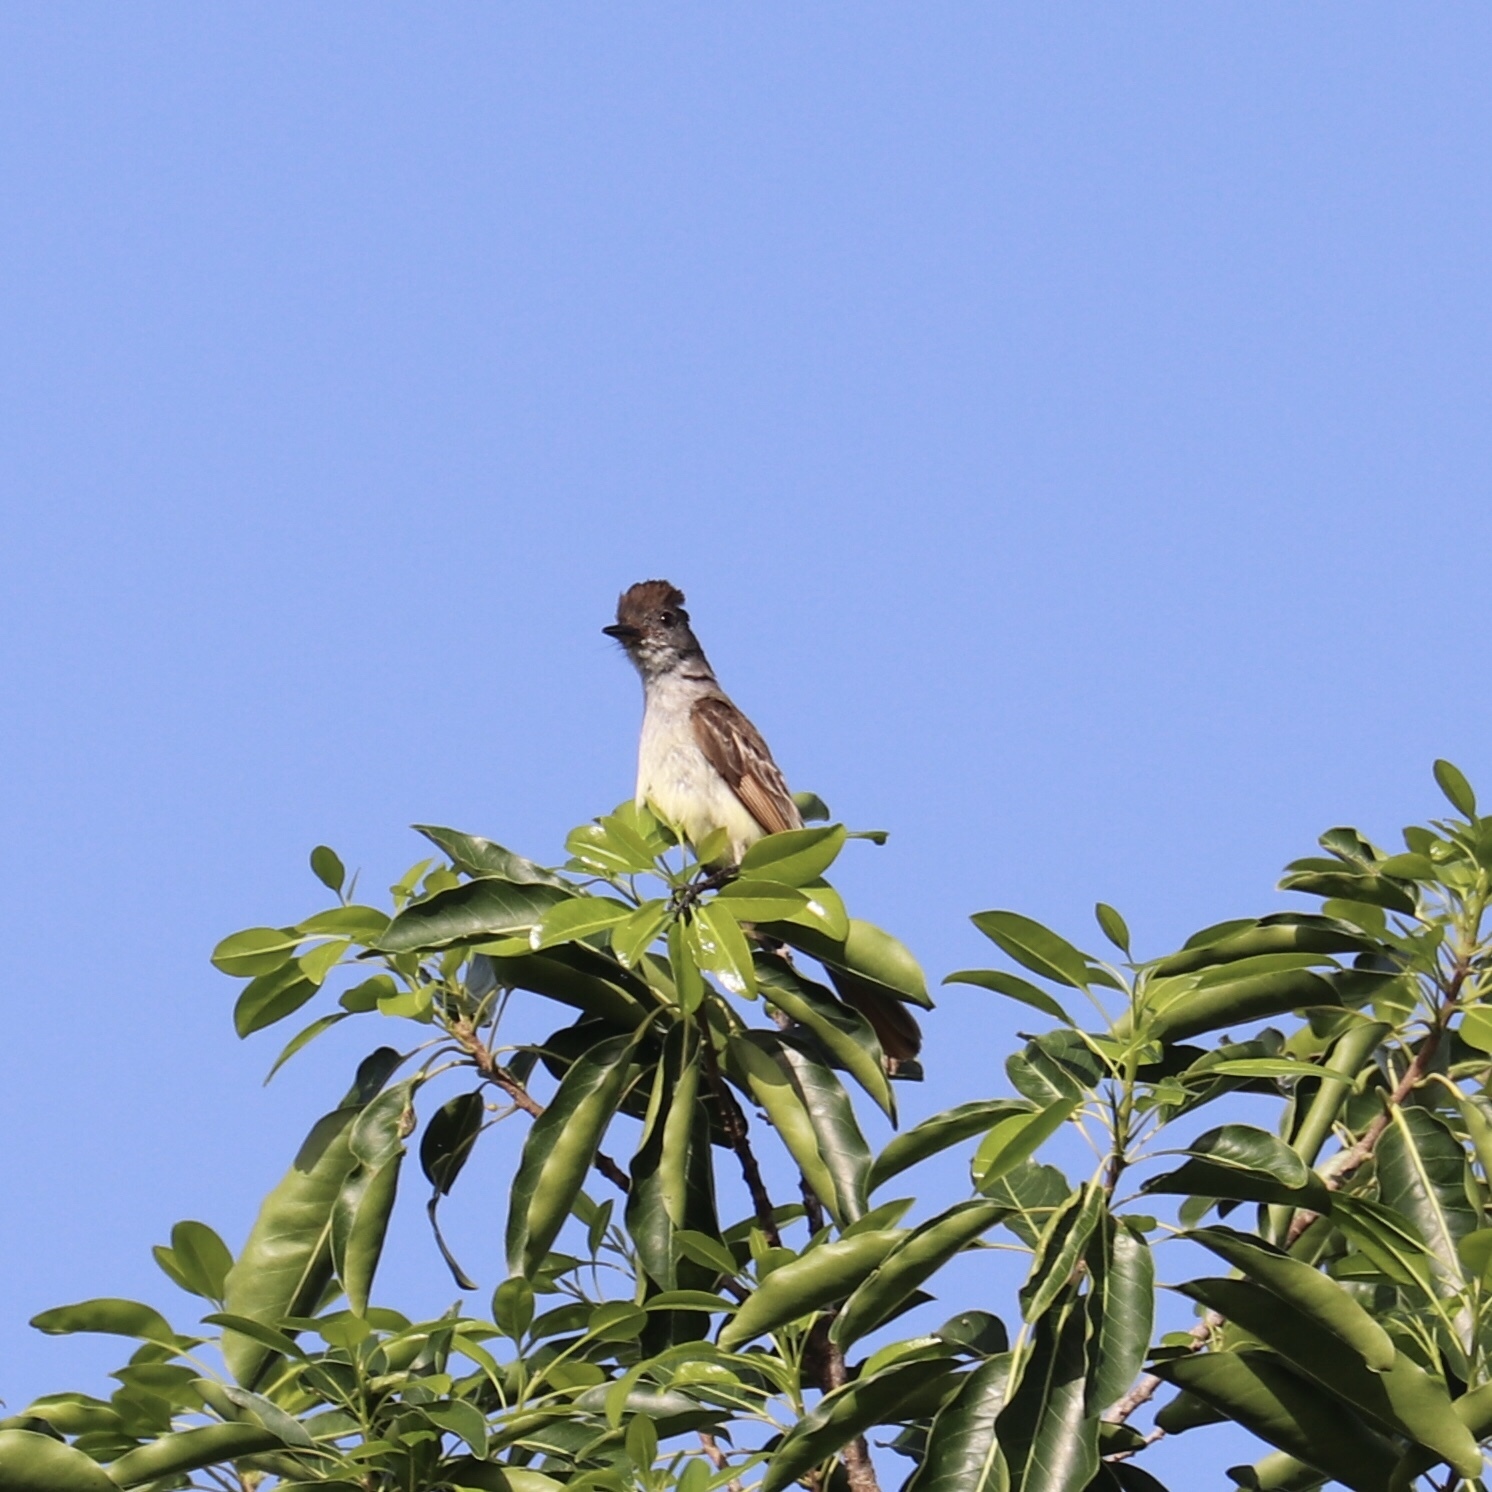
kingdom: Animalia
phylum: Chordata
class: Aves
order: Passeriformes
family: Tyrannidae
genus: Myiarchus
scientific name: Myiarchus stolidus
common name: Stolid flycatcher
